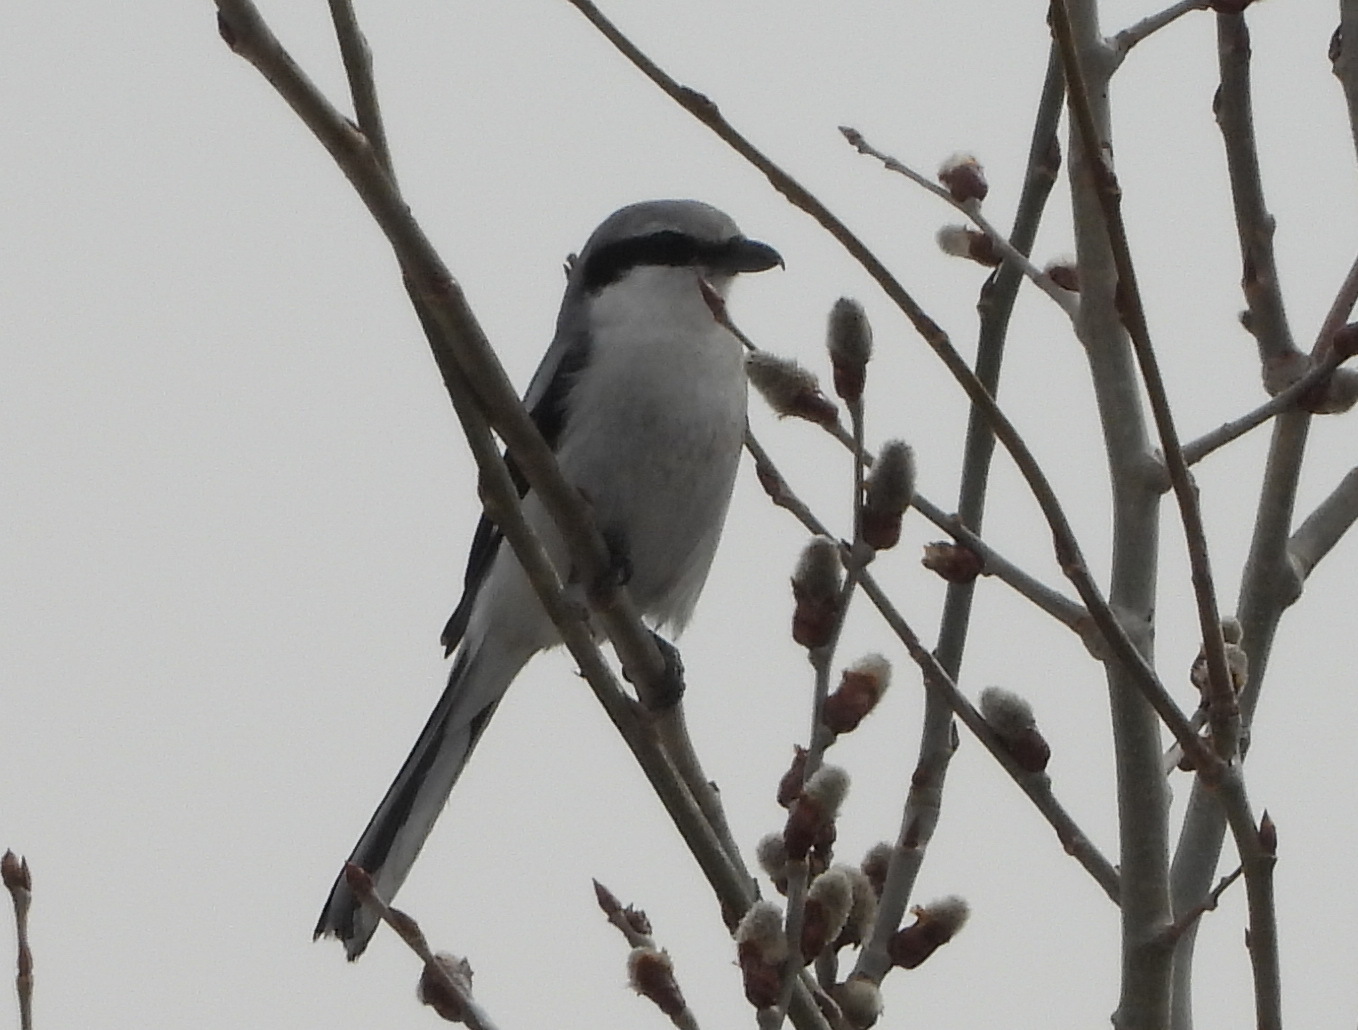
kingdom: Animalia
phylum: Chordata
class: Aves
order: Passeriformes
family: Laniidae
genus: Lanius
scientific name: Lanius excubitor
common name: Great grey shrike
